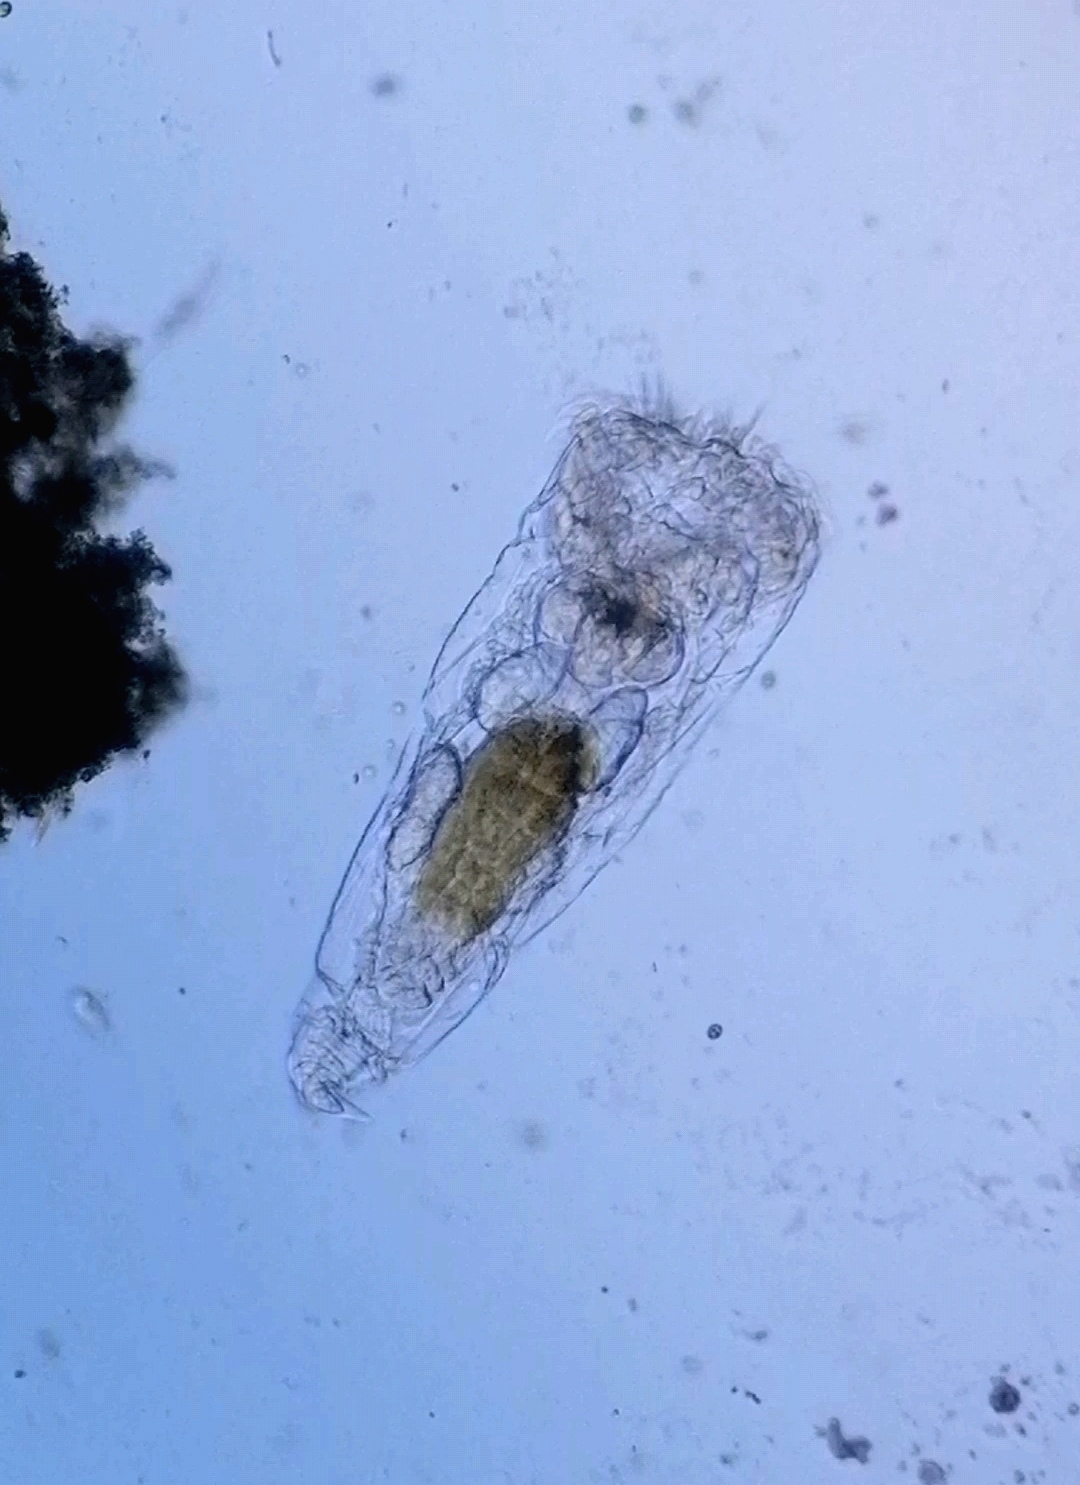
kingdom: Animalia
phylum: Rotifera
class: Eurotatoria
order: Ploima
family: Epiphanidae
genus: Epiphanes
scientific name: Epiphanes senta
